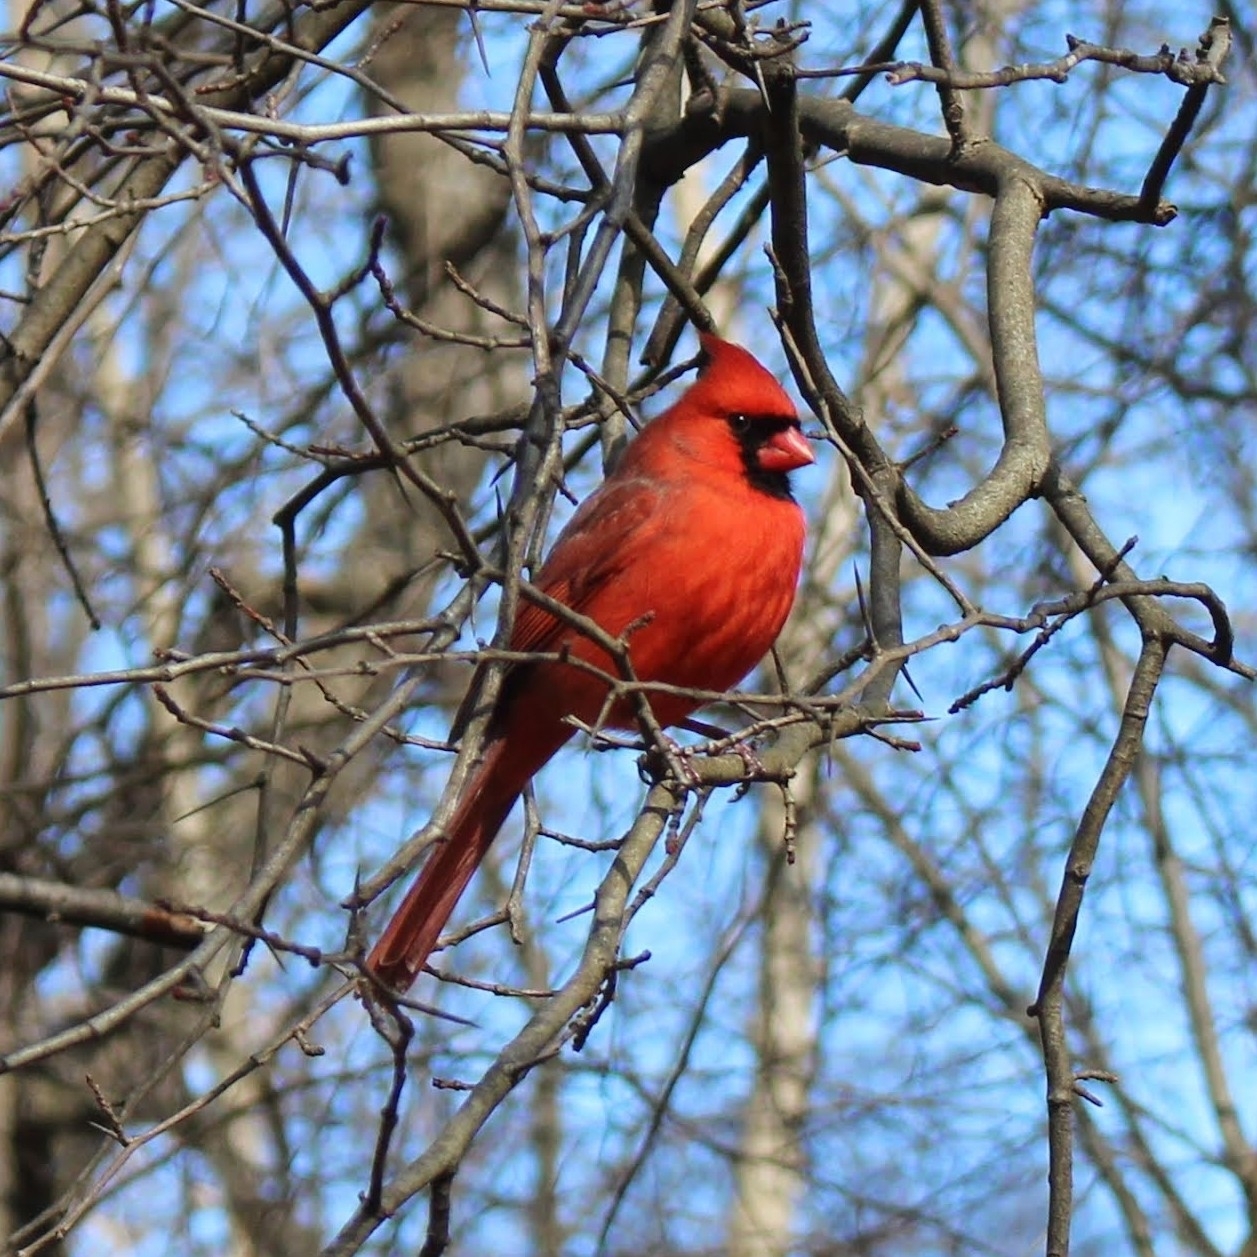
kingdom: Animalia
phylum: Chordata
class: Aves
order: Passeriformes
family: Cardinalidae
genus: Cardinalis
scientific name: Cardinalis cardinalis
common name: Northern cardinal
